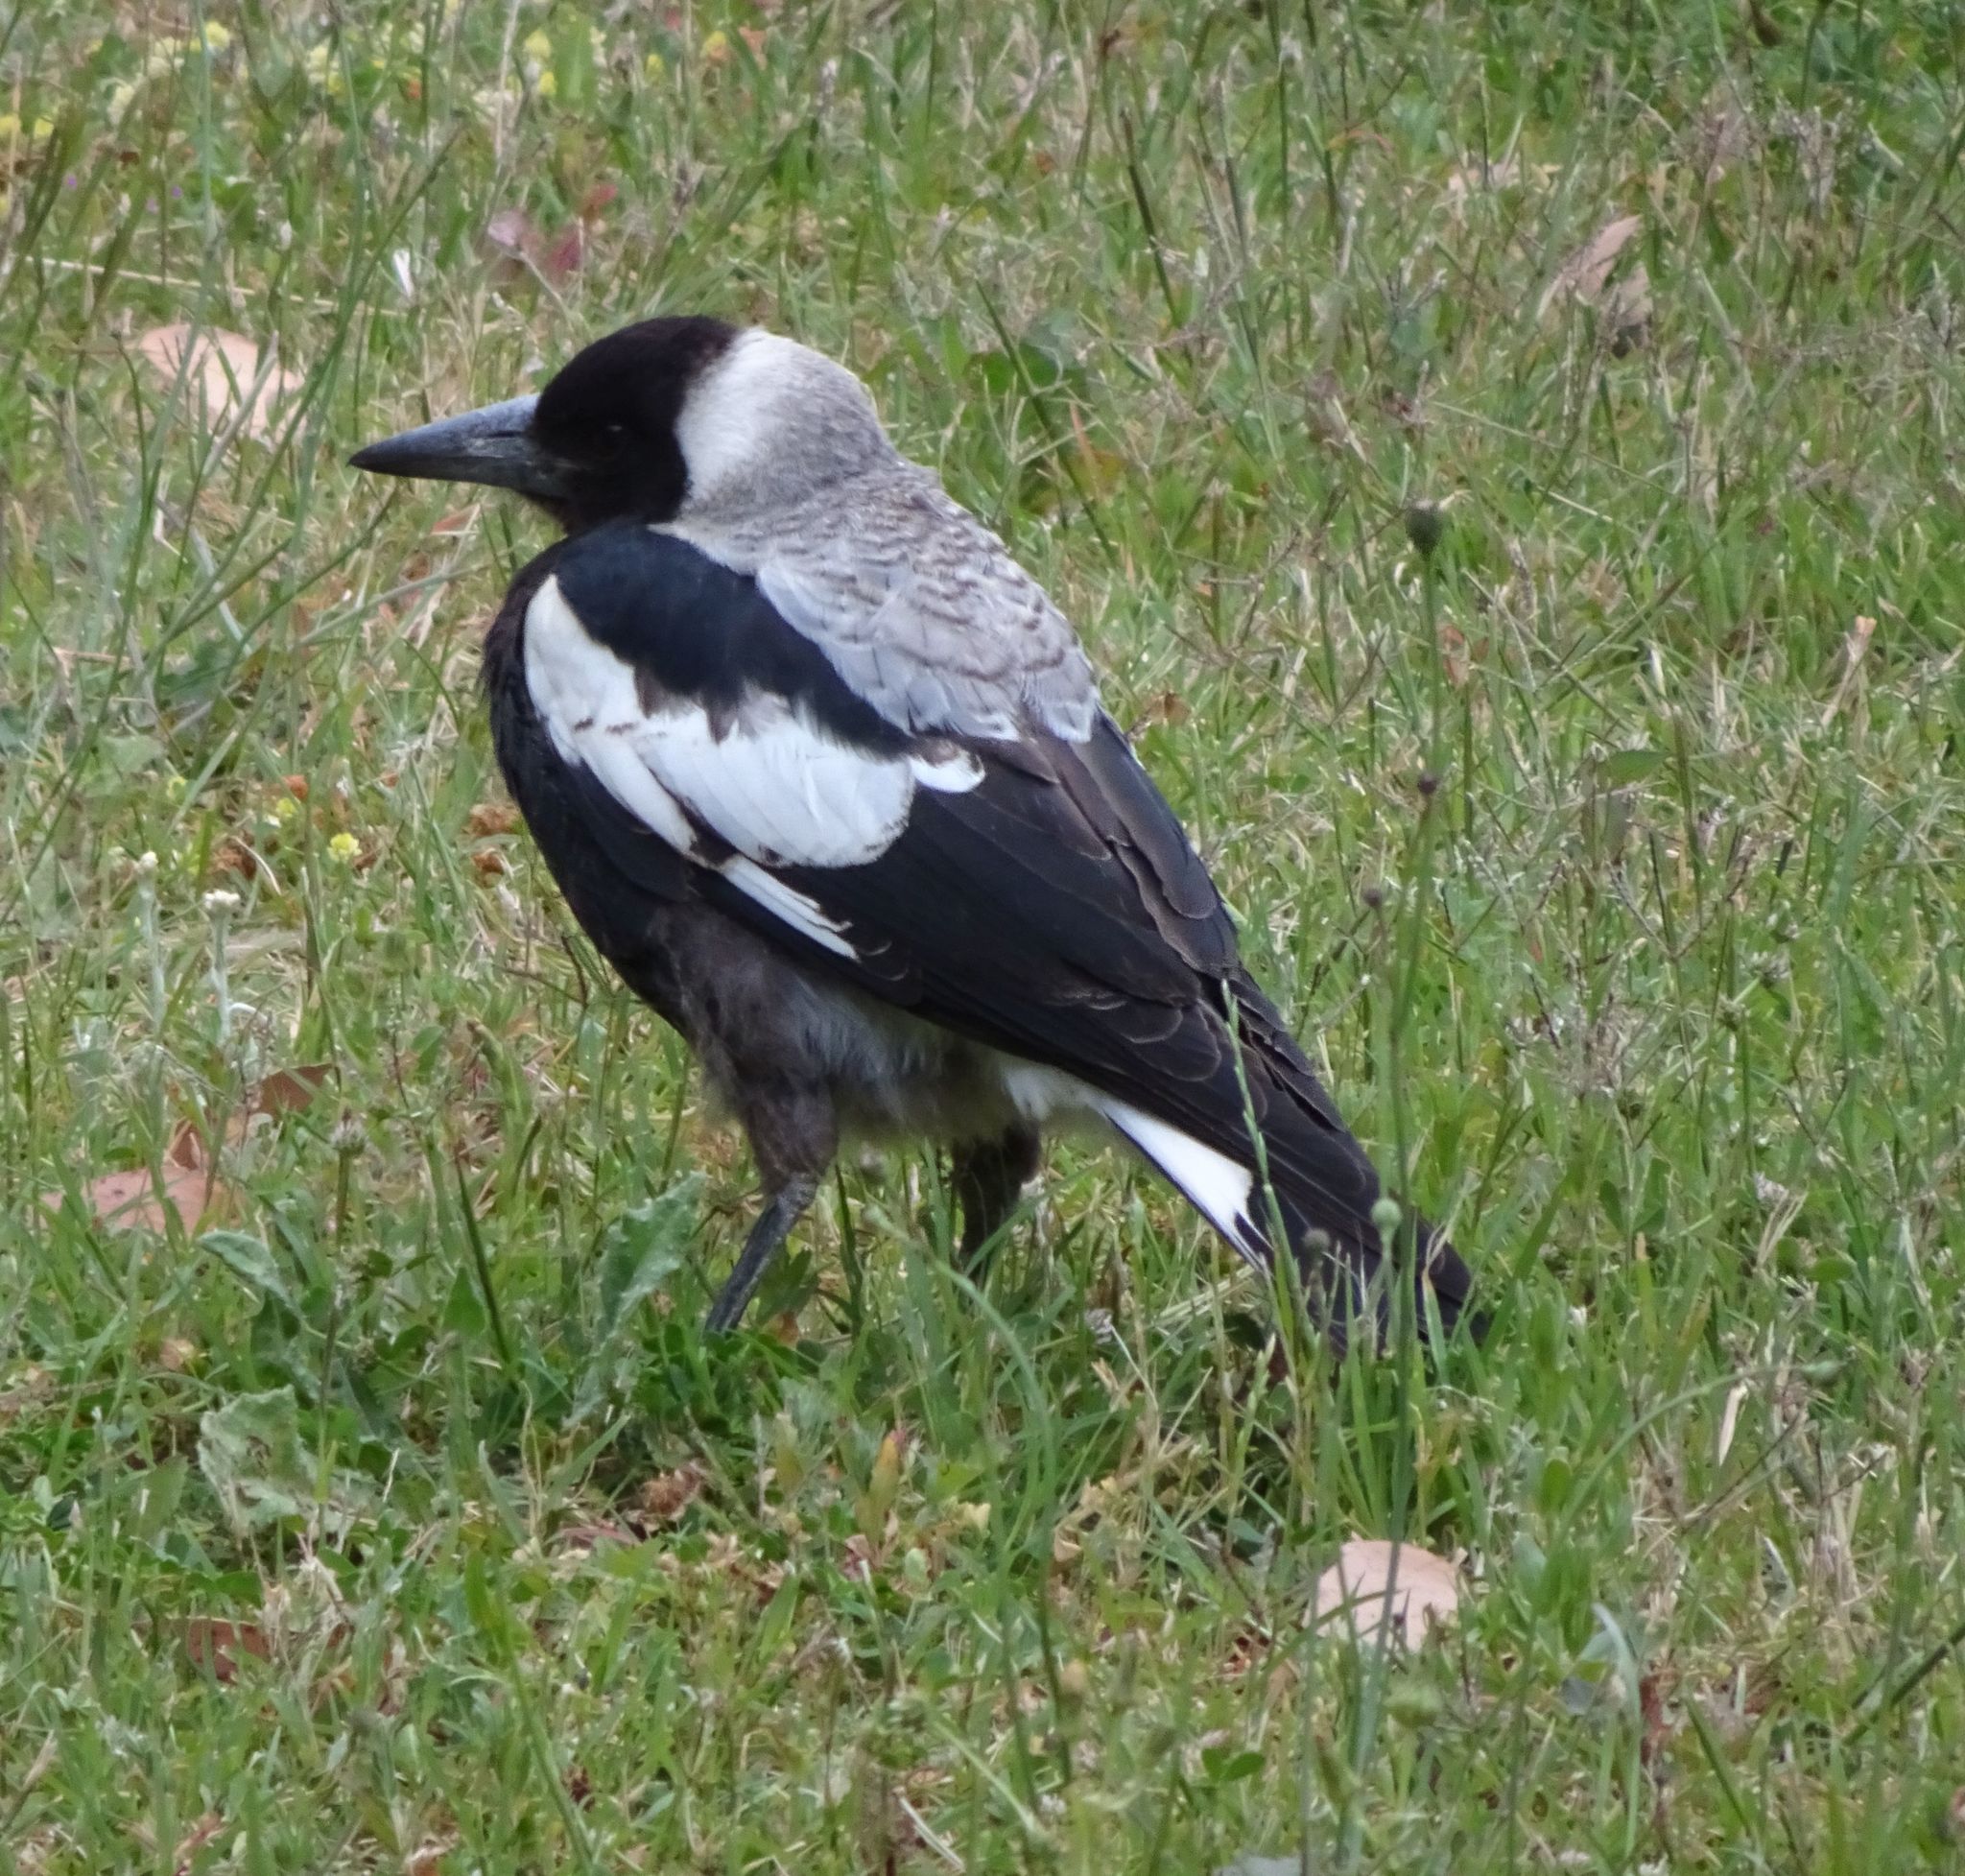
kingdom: Animalia
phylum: Chordata
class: Aves
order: Passeriformes
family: Cracticidae
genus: Gymnorhina
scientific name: Gymnorhina tibicen
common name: Australian magpie
